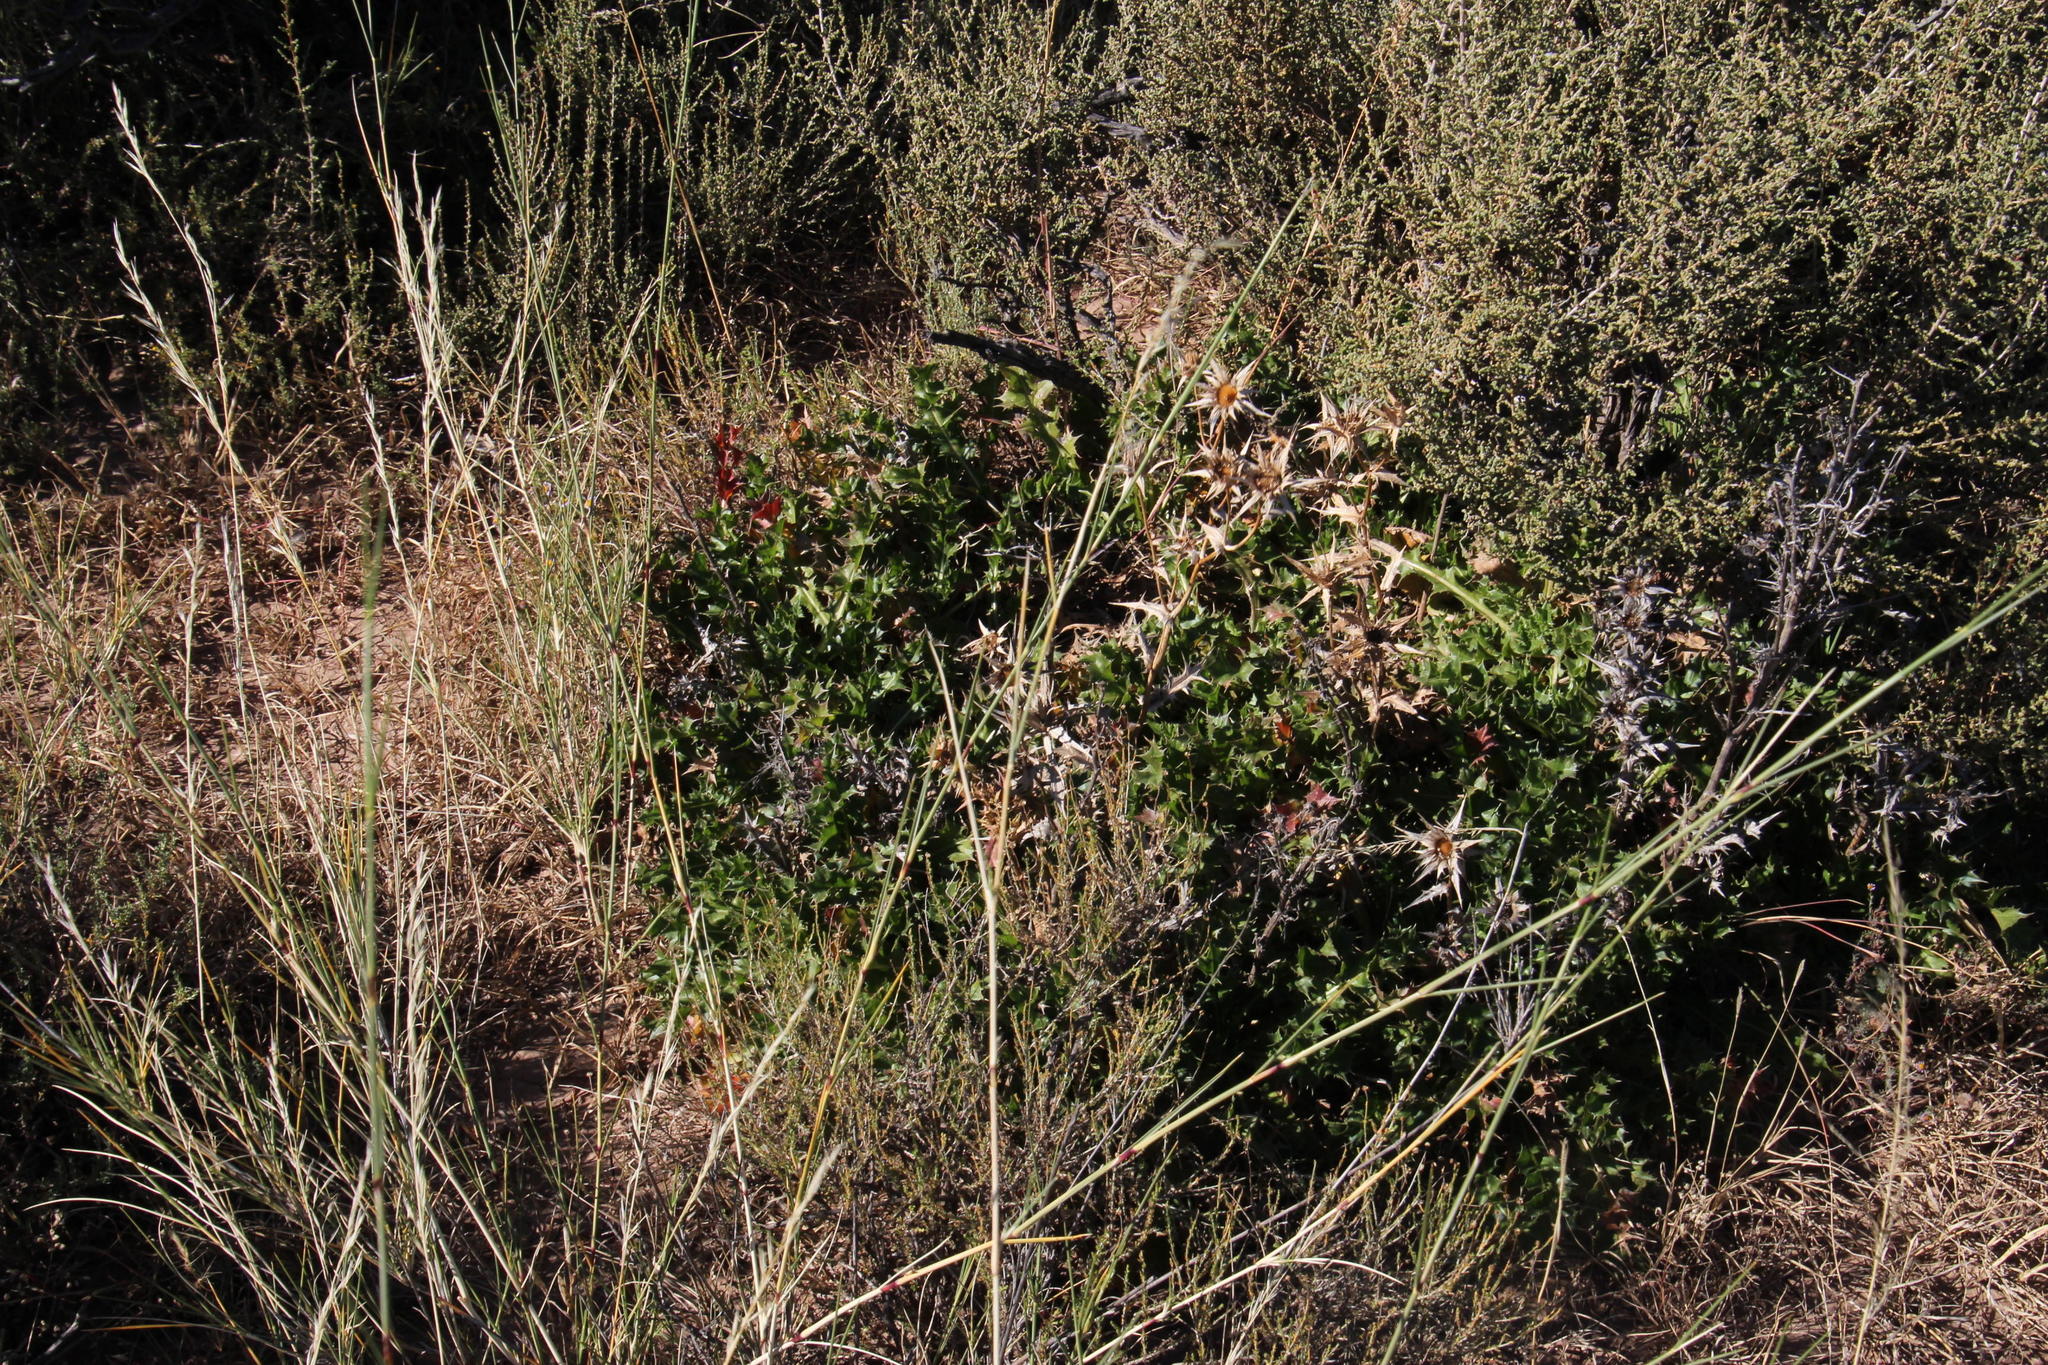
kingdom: Plantae
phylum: Tracheophyta
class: Magnoliopsida
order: Asterales
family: Asteraceae
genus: Berkheya
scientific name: Berkheya carlinifolia
